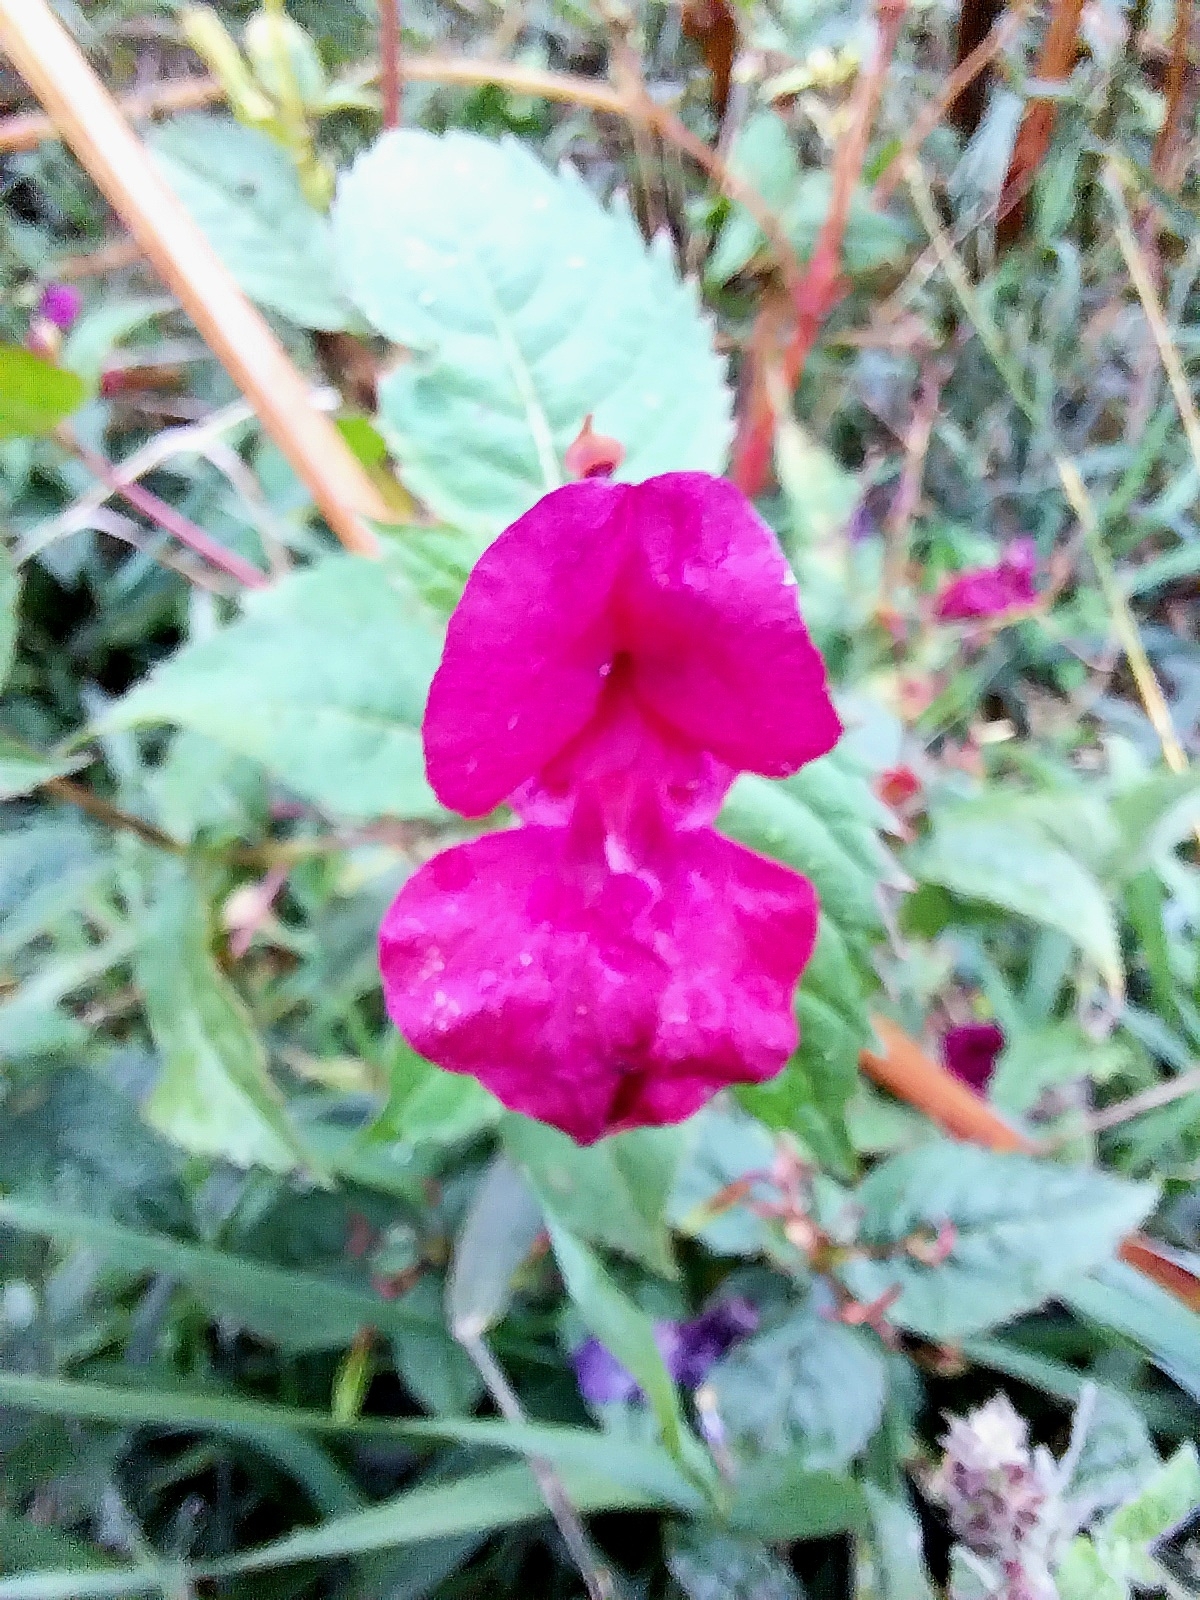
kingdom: Plantae
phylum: Tracheophyta
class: Magnoliopsida
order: Ericales
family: Balsaminaceae
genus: Impatiens
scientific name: Impatiens glandulifera
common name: Himalayan balsam
